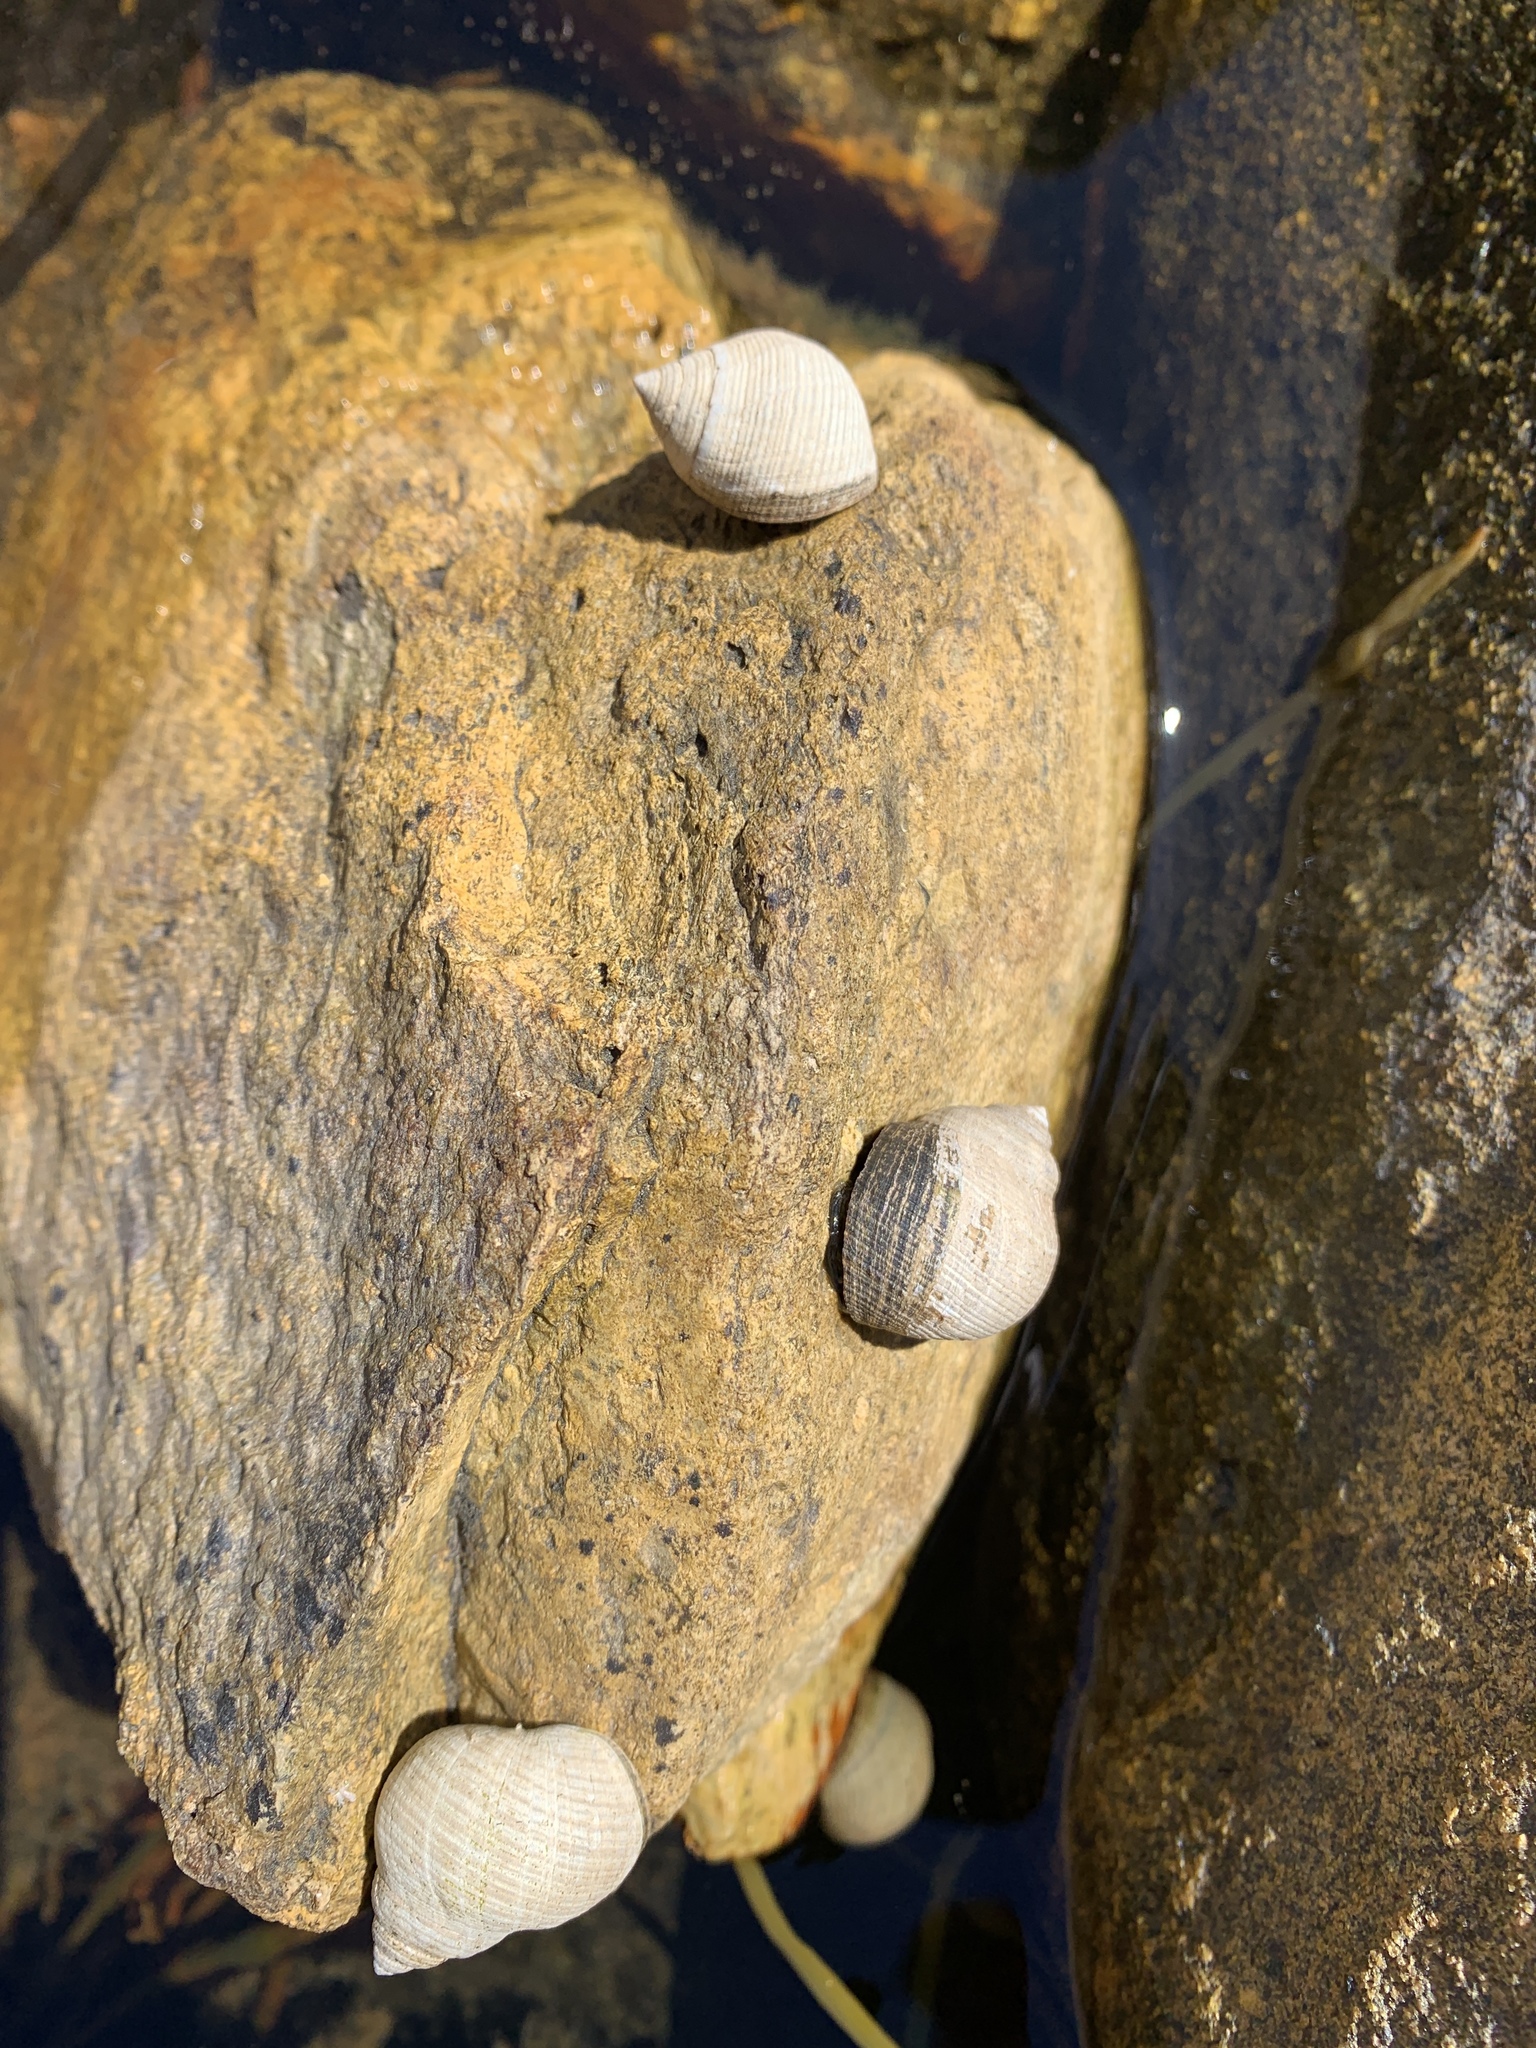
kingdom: Animalia
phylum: Mollusca
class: Gastropoda
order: Littorinimorpha
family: Littorinidae
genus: Littorina
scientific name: Littorina littorea
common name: Common periwinkle
